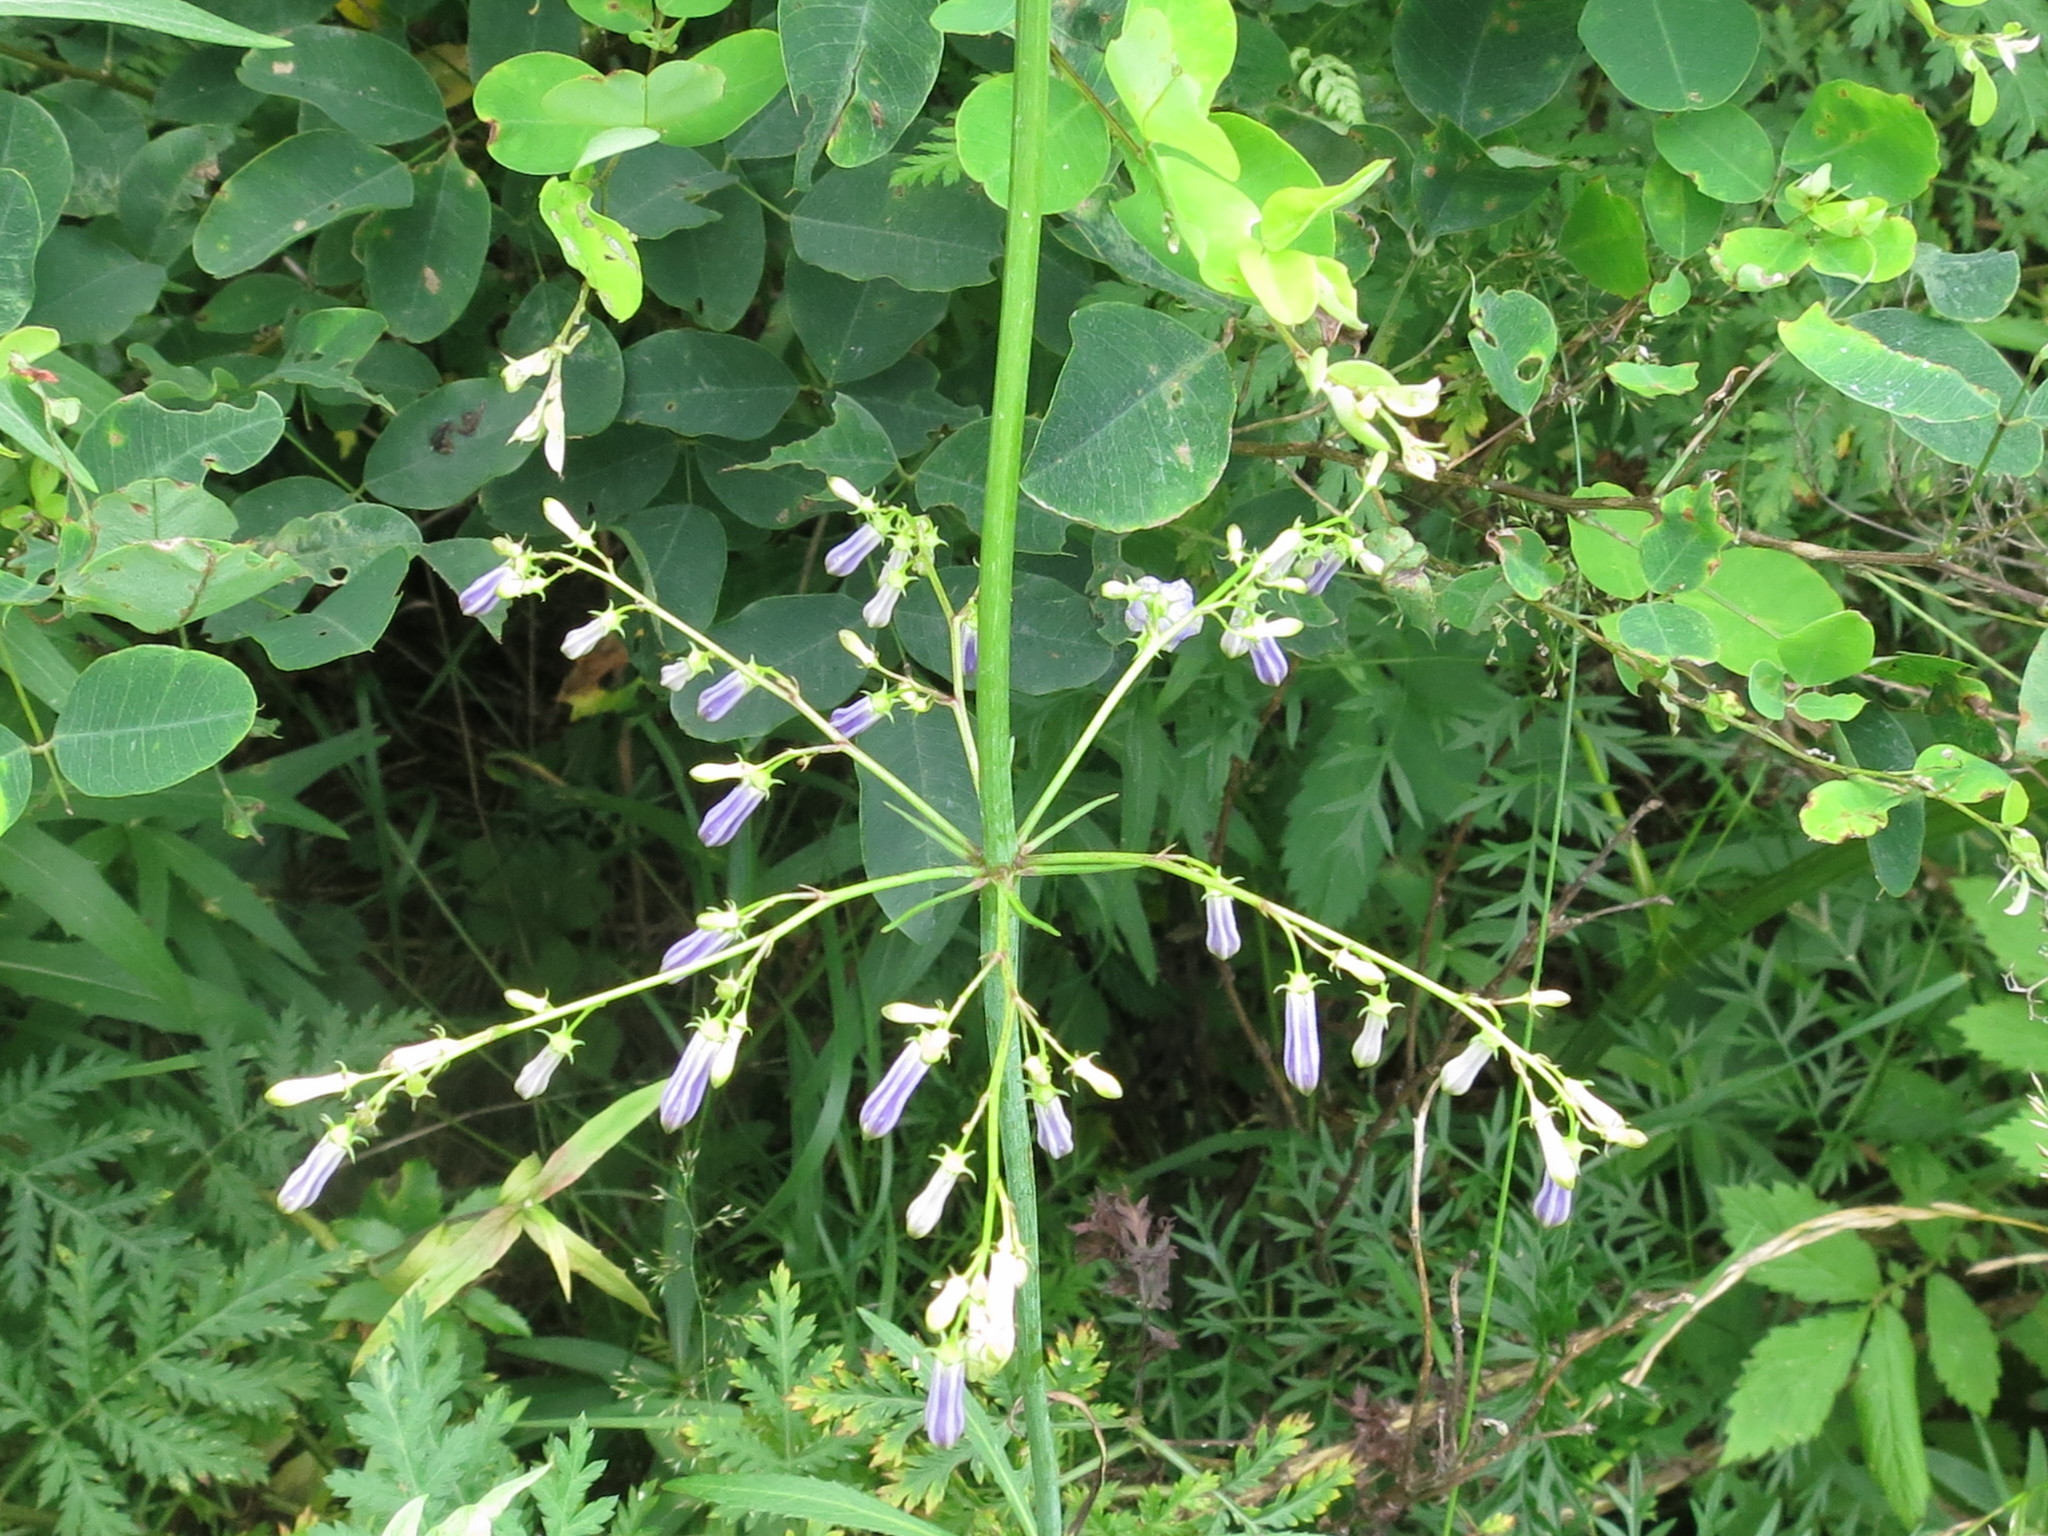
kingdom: Plantae
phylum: Tracheophyta
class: Magnoliopsida
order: Asterales
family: Campanulaceae
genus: Adenophora
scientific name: Adenophora triphylla
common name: Giant-bellflower
